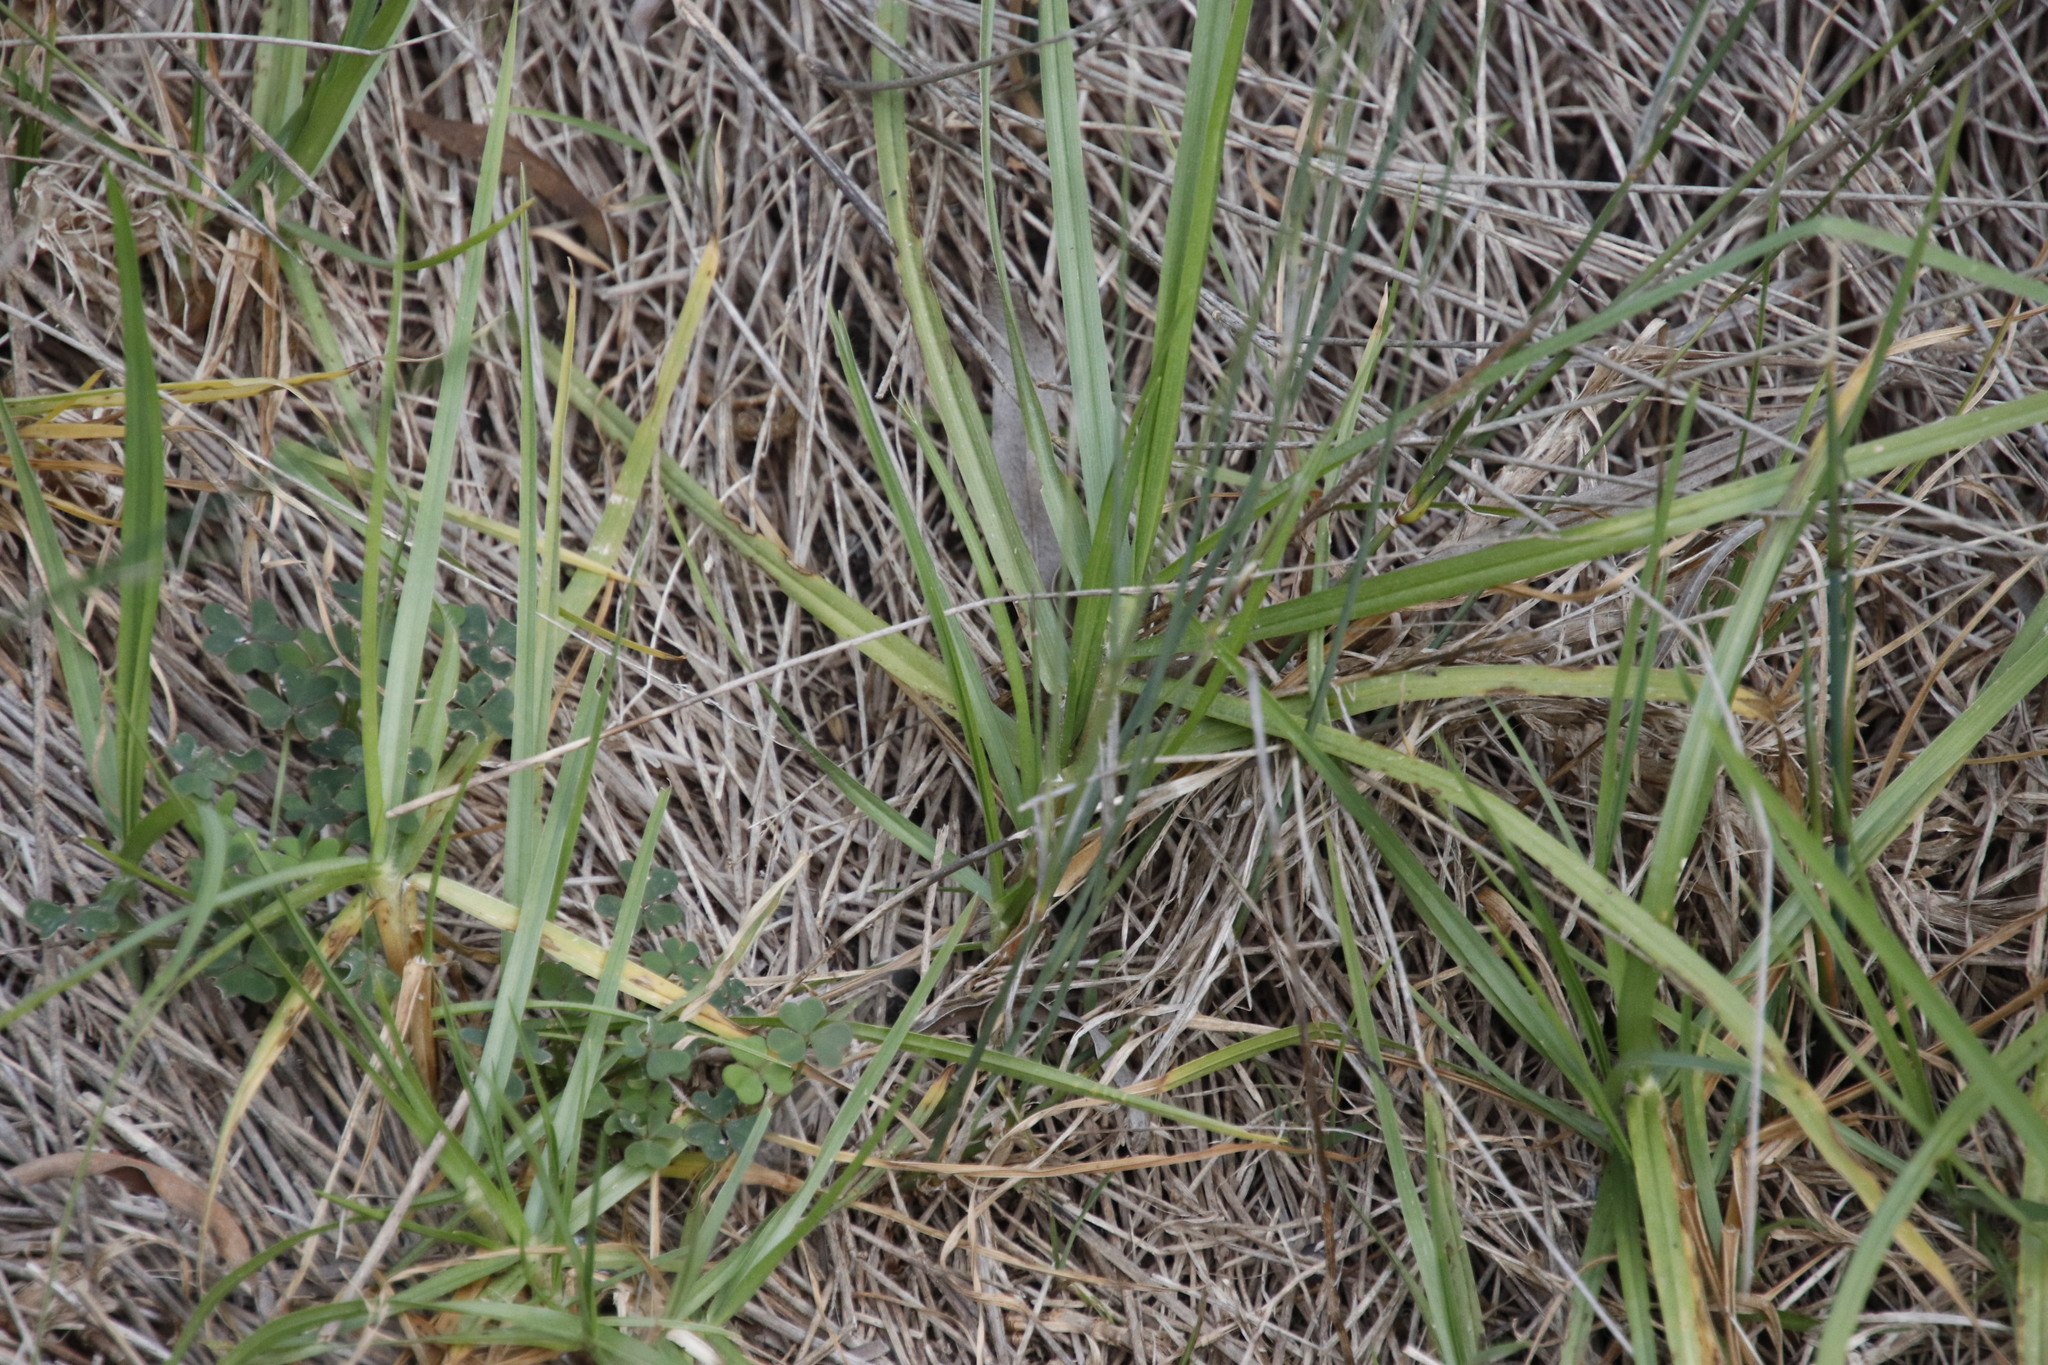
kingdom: Plantae
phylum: Tracheophyta
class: Liliopsida
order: Poales
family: Poaceae
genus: Cenchrus
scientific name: Cenchrus clandestinus
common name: Kikuyugrass
